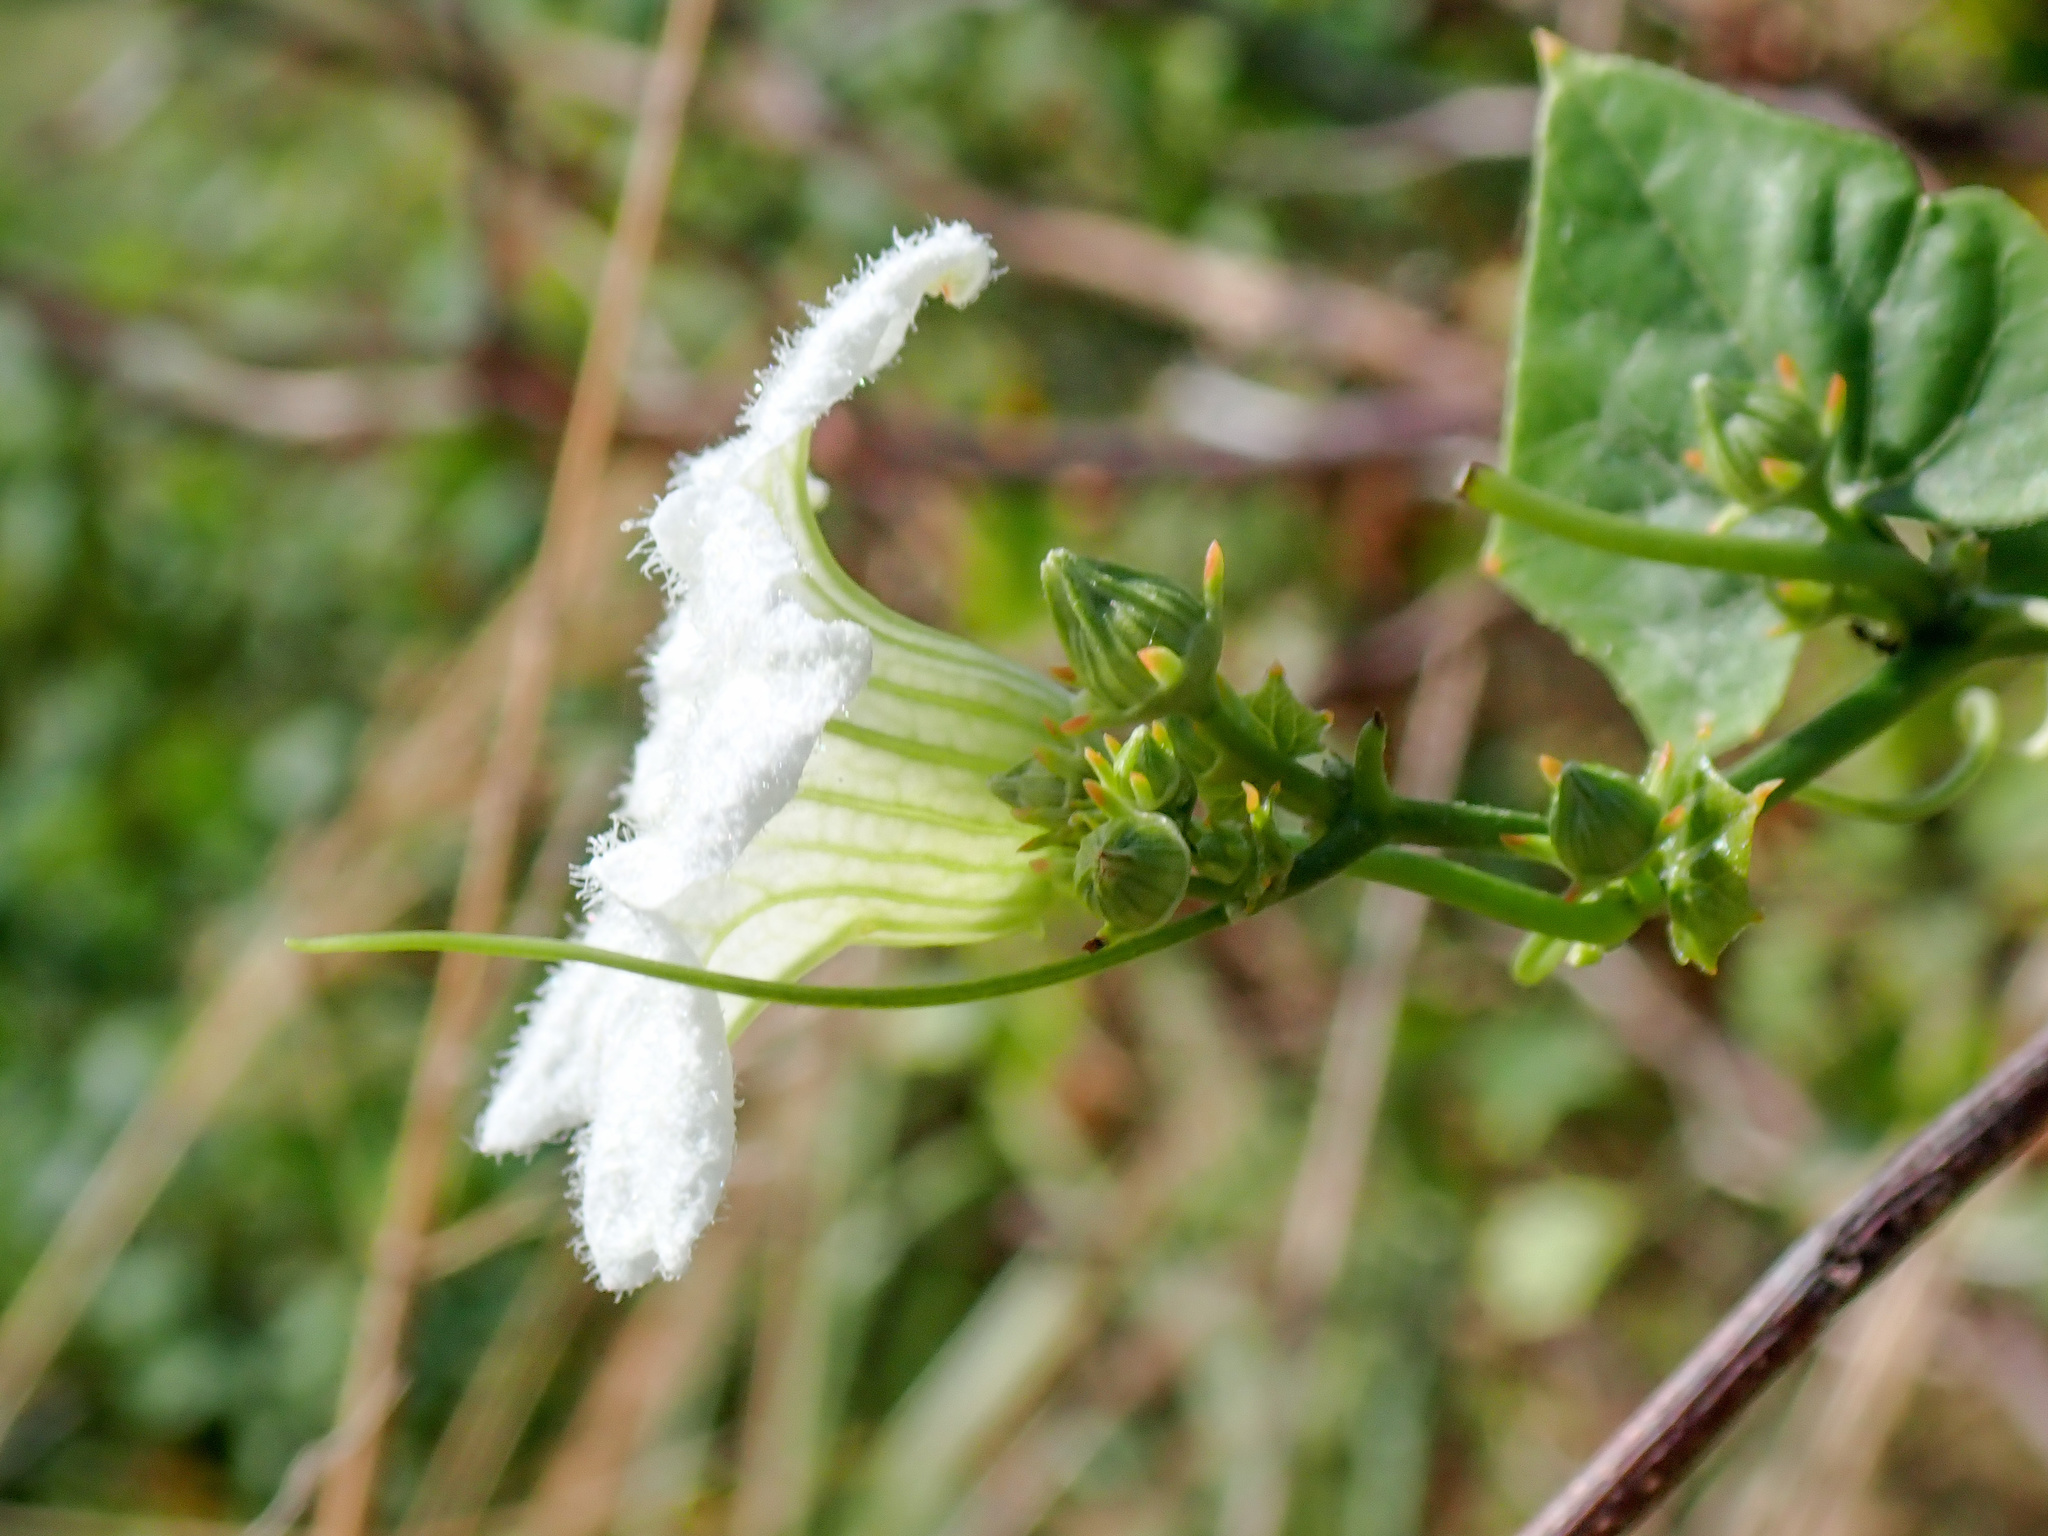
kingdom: Plantae
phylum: Tracheophyta
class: Magnoliopsida
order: Cucurbitales
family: Cucurbitaceae
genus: Coccinia
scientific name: Coccinia grandis
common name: Ivy gourd
